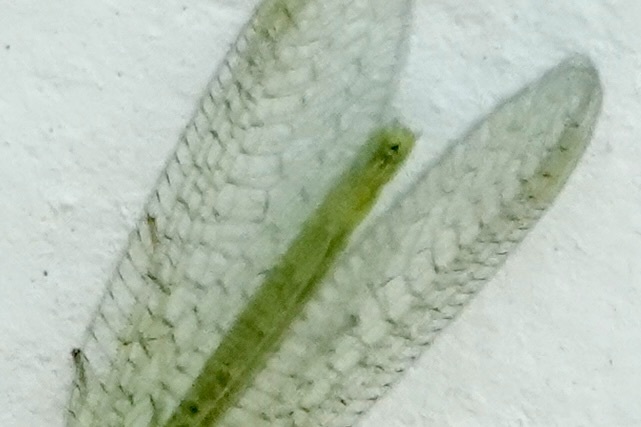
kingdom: Animalia
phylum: Arthropoda
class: Insecta
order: Neuroptera
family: Chrysopidae
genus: Chrysopa
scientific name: Chrysopa oculata
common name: Golden-eyed lacewing
